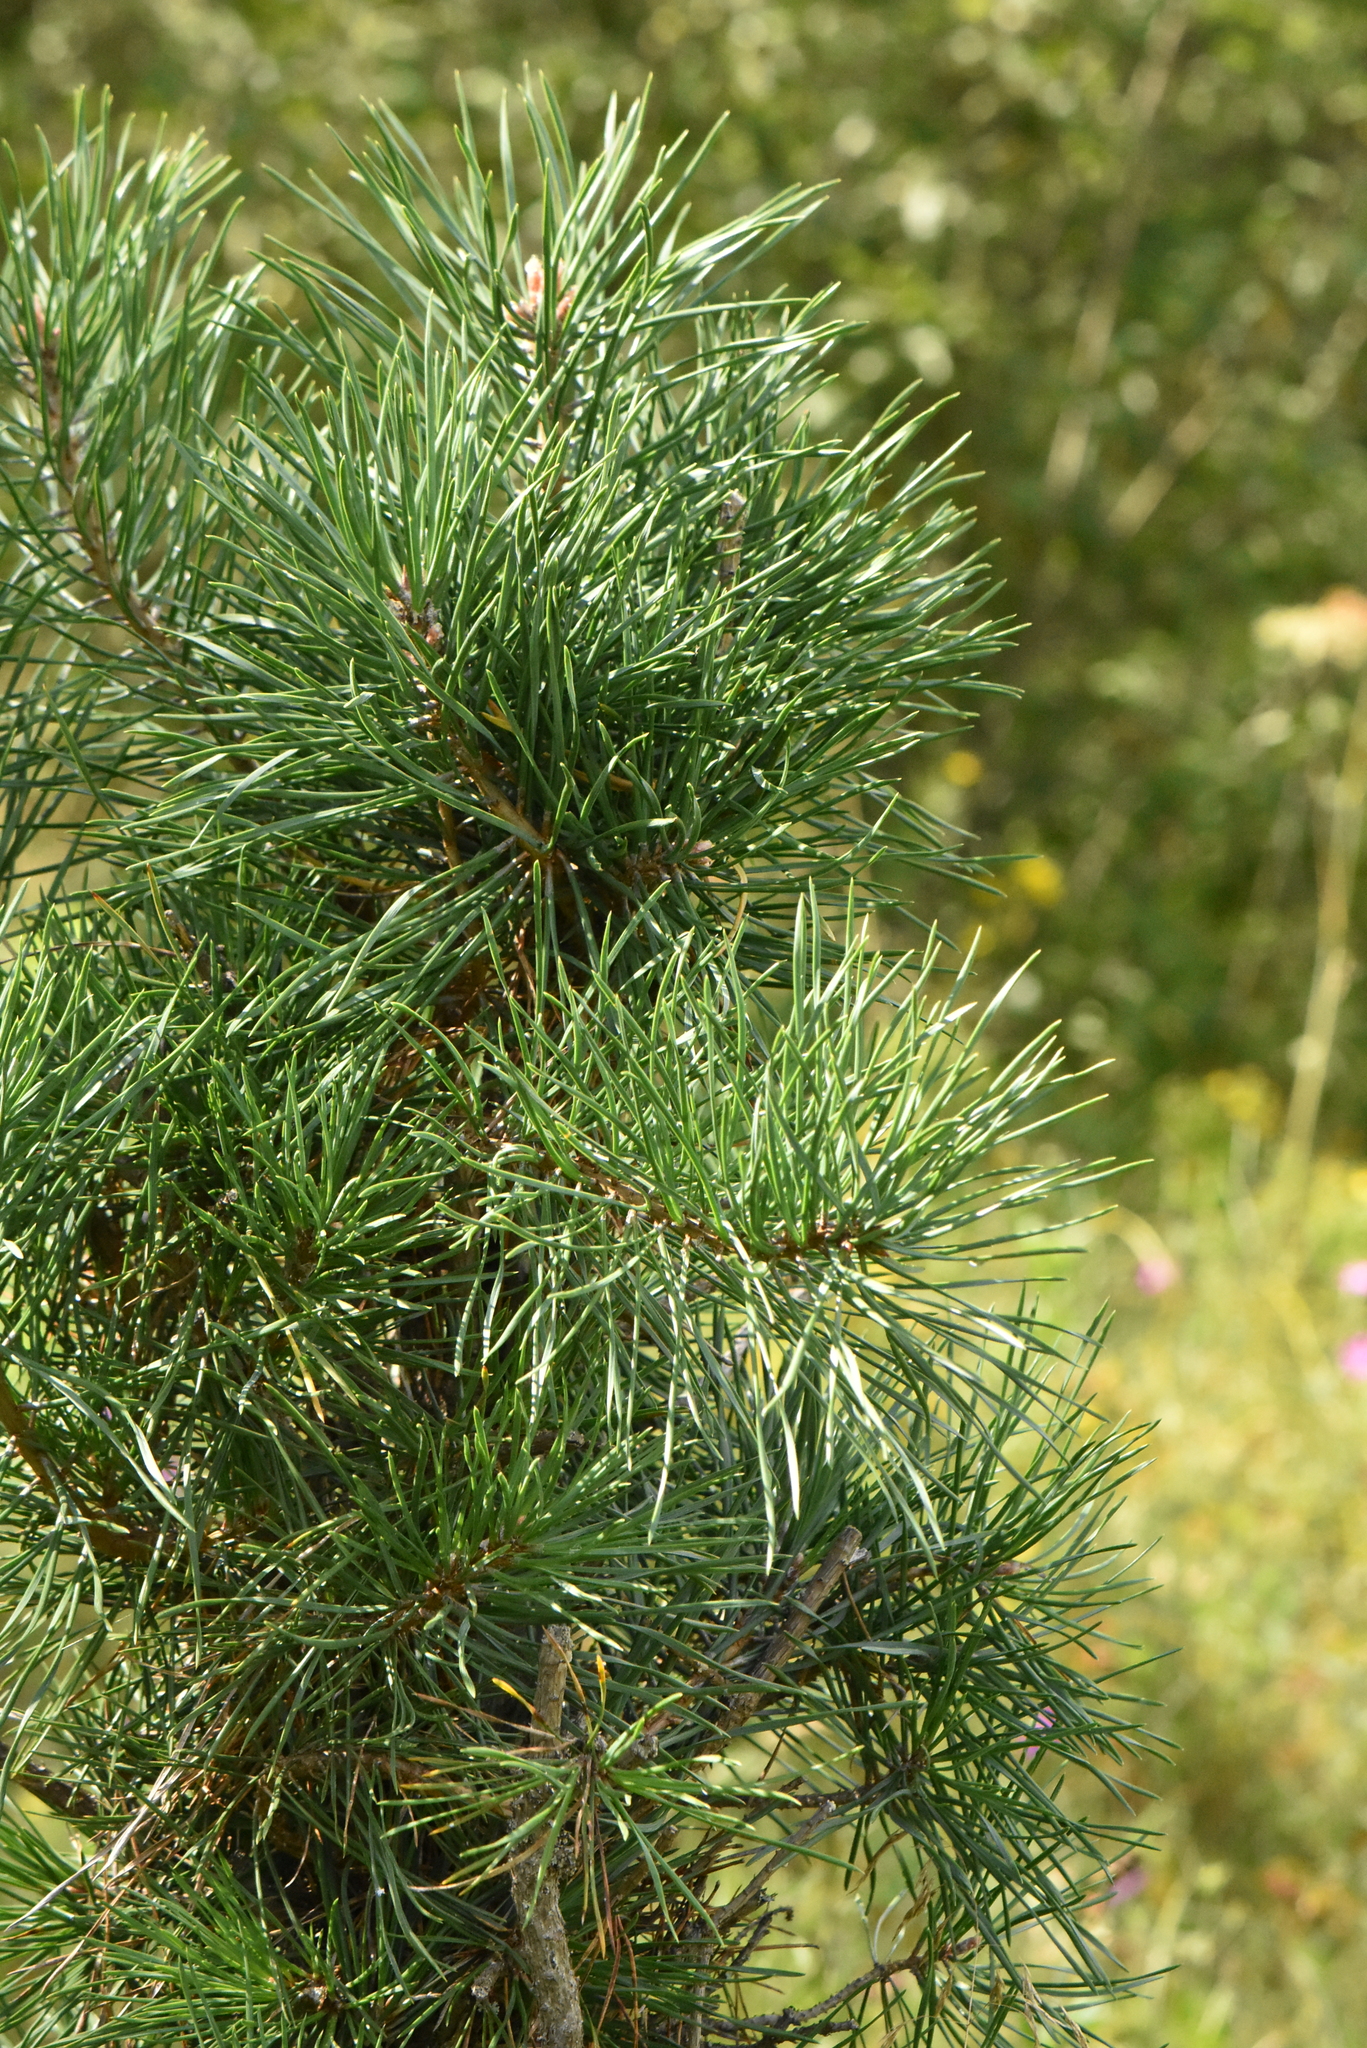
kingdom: Plantae
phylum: Tracheophyta
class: Pinopsida
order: Pinales
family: Pinaceae
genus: Pinus
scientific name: Pinus sylvestris
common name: Scots pine
